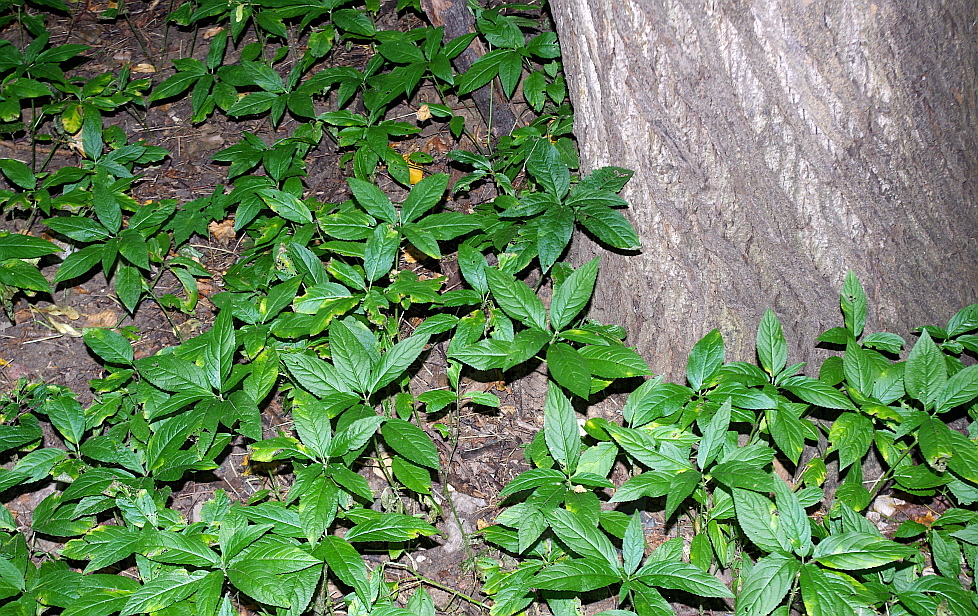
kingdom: Plantae
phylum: Tracheophyta
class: Magnoliopsida
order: Malpighiales
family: Euphorbiaceae
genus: Mercurialis
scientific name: Mercurialis perennis
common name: Dog mercury
